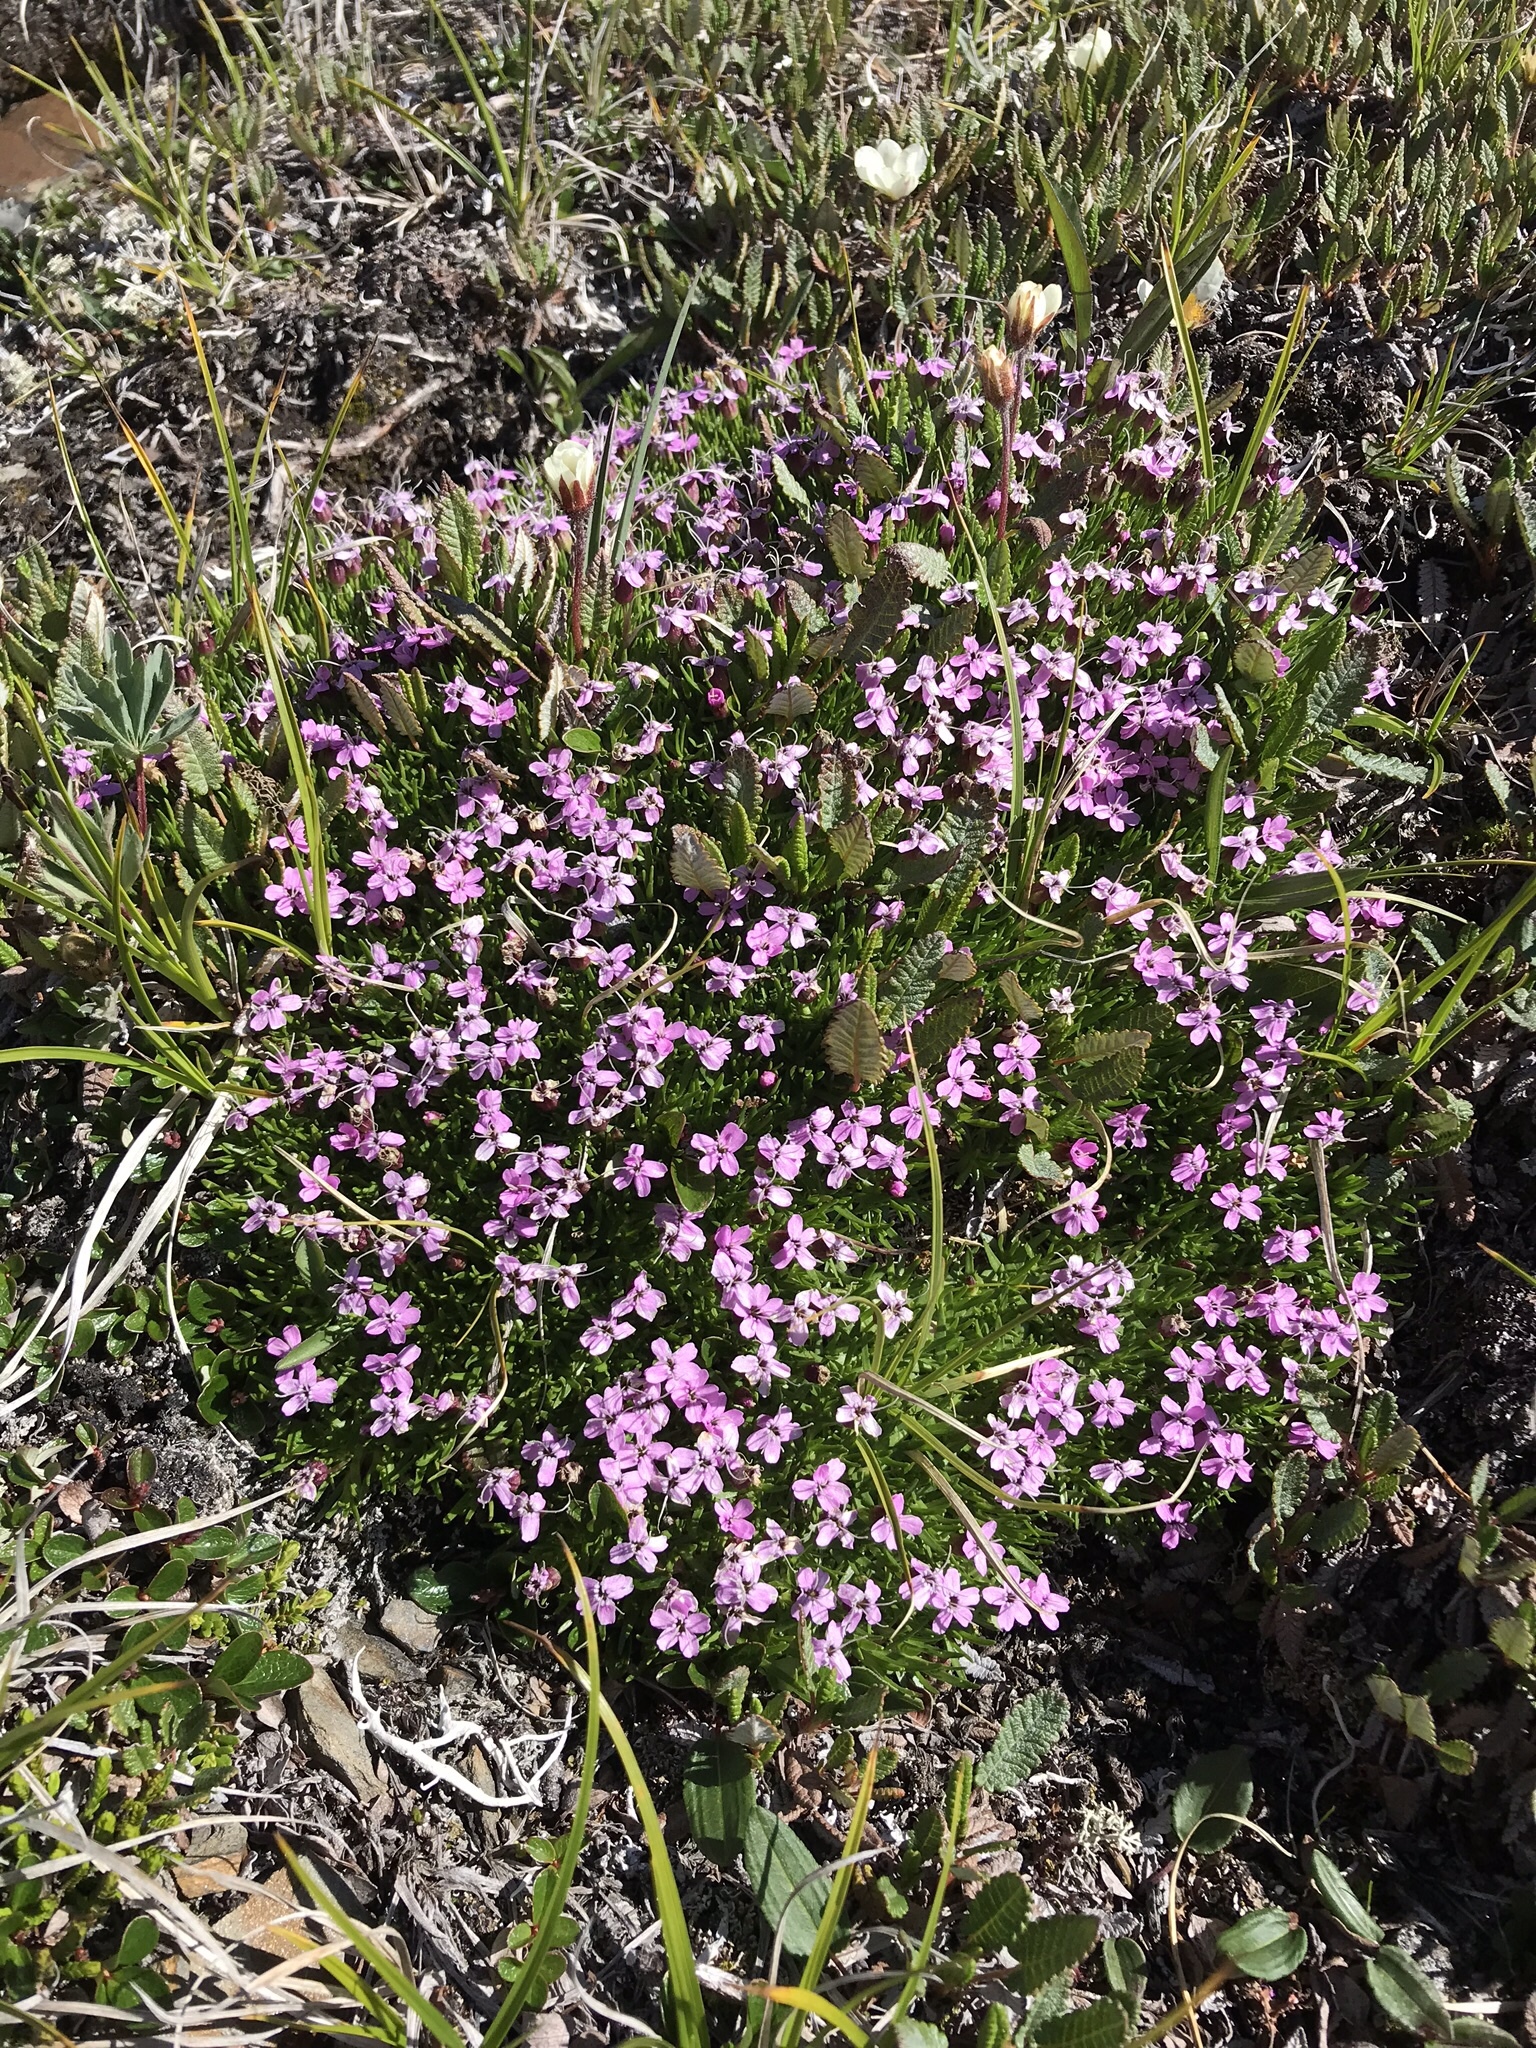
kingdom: Plantae
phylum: Tracheophyta
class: Magnoliopsida
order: Caryophyllales
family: Caryophyllaceae
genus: Silene
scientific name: Silene acaulis
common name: Moss campion
